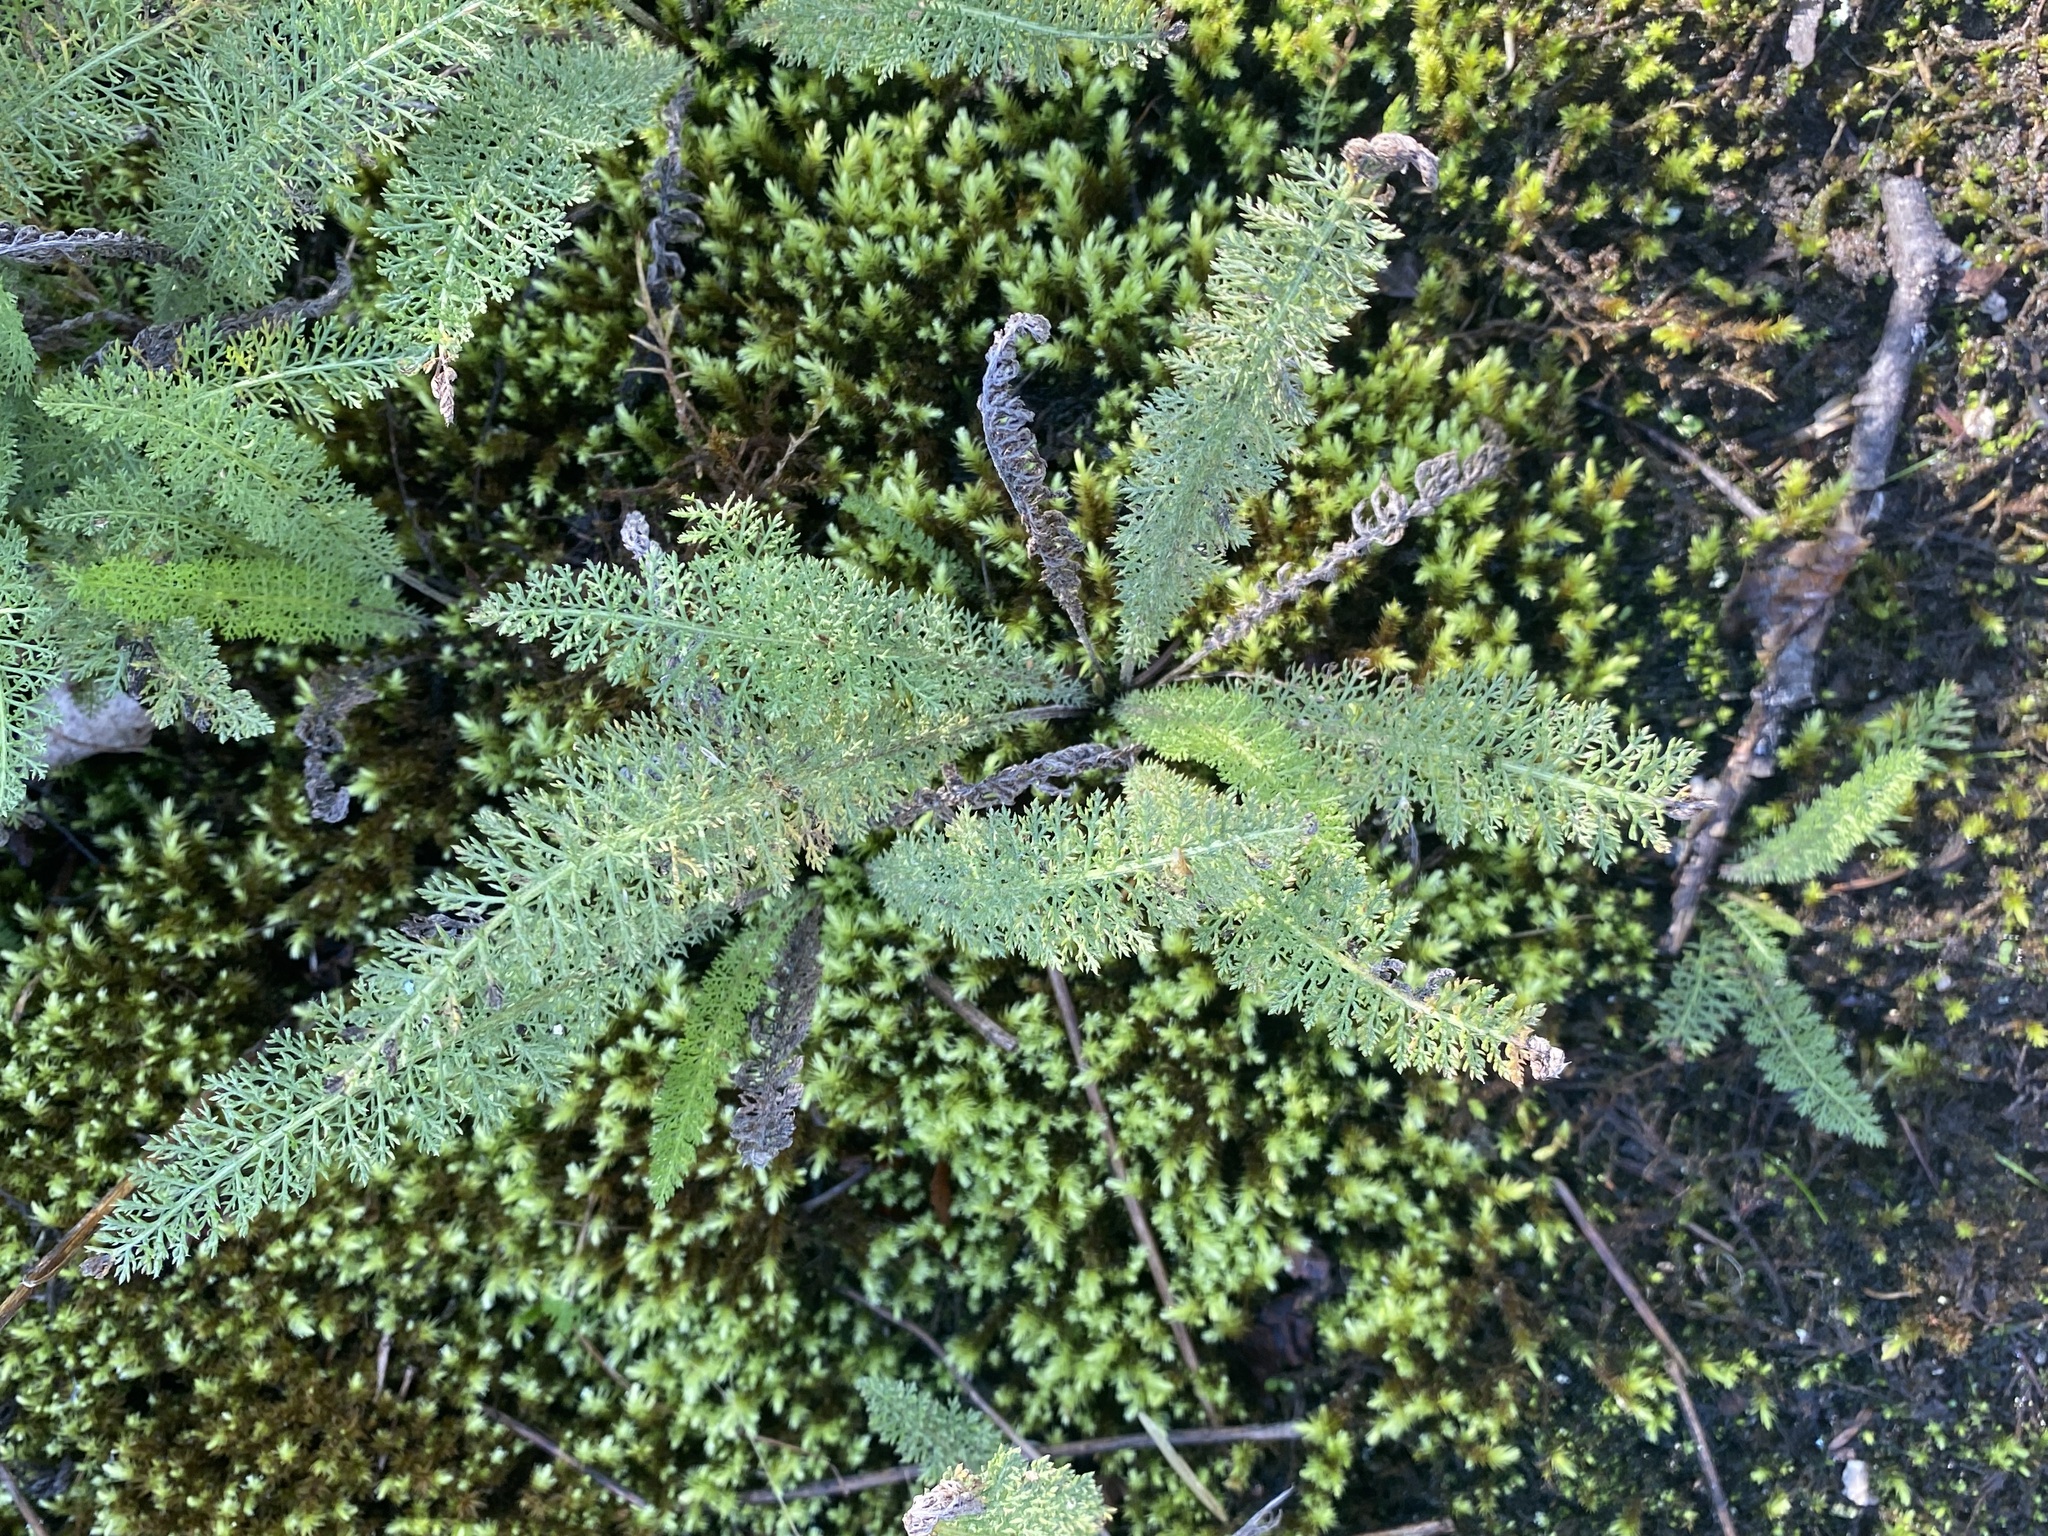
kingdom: Plantae
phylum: Tracheophyta
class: Magnoliopsida
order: Asterales
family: Asteraceae
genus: Achillea
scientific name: Achillea millefolium
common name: Yarrow
